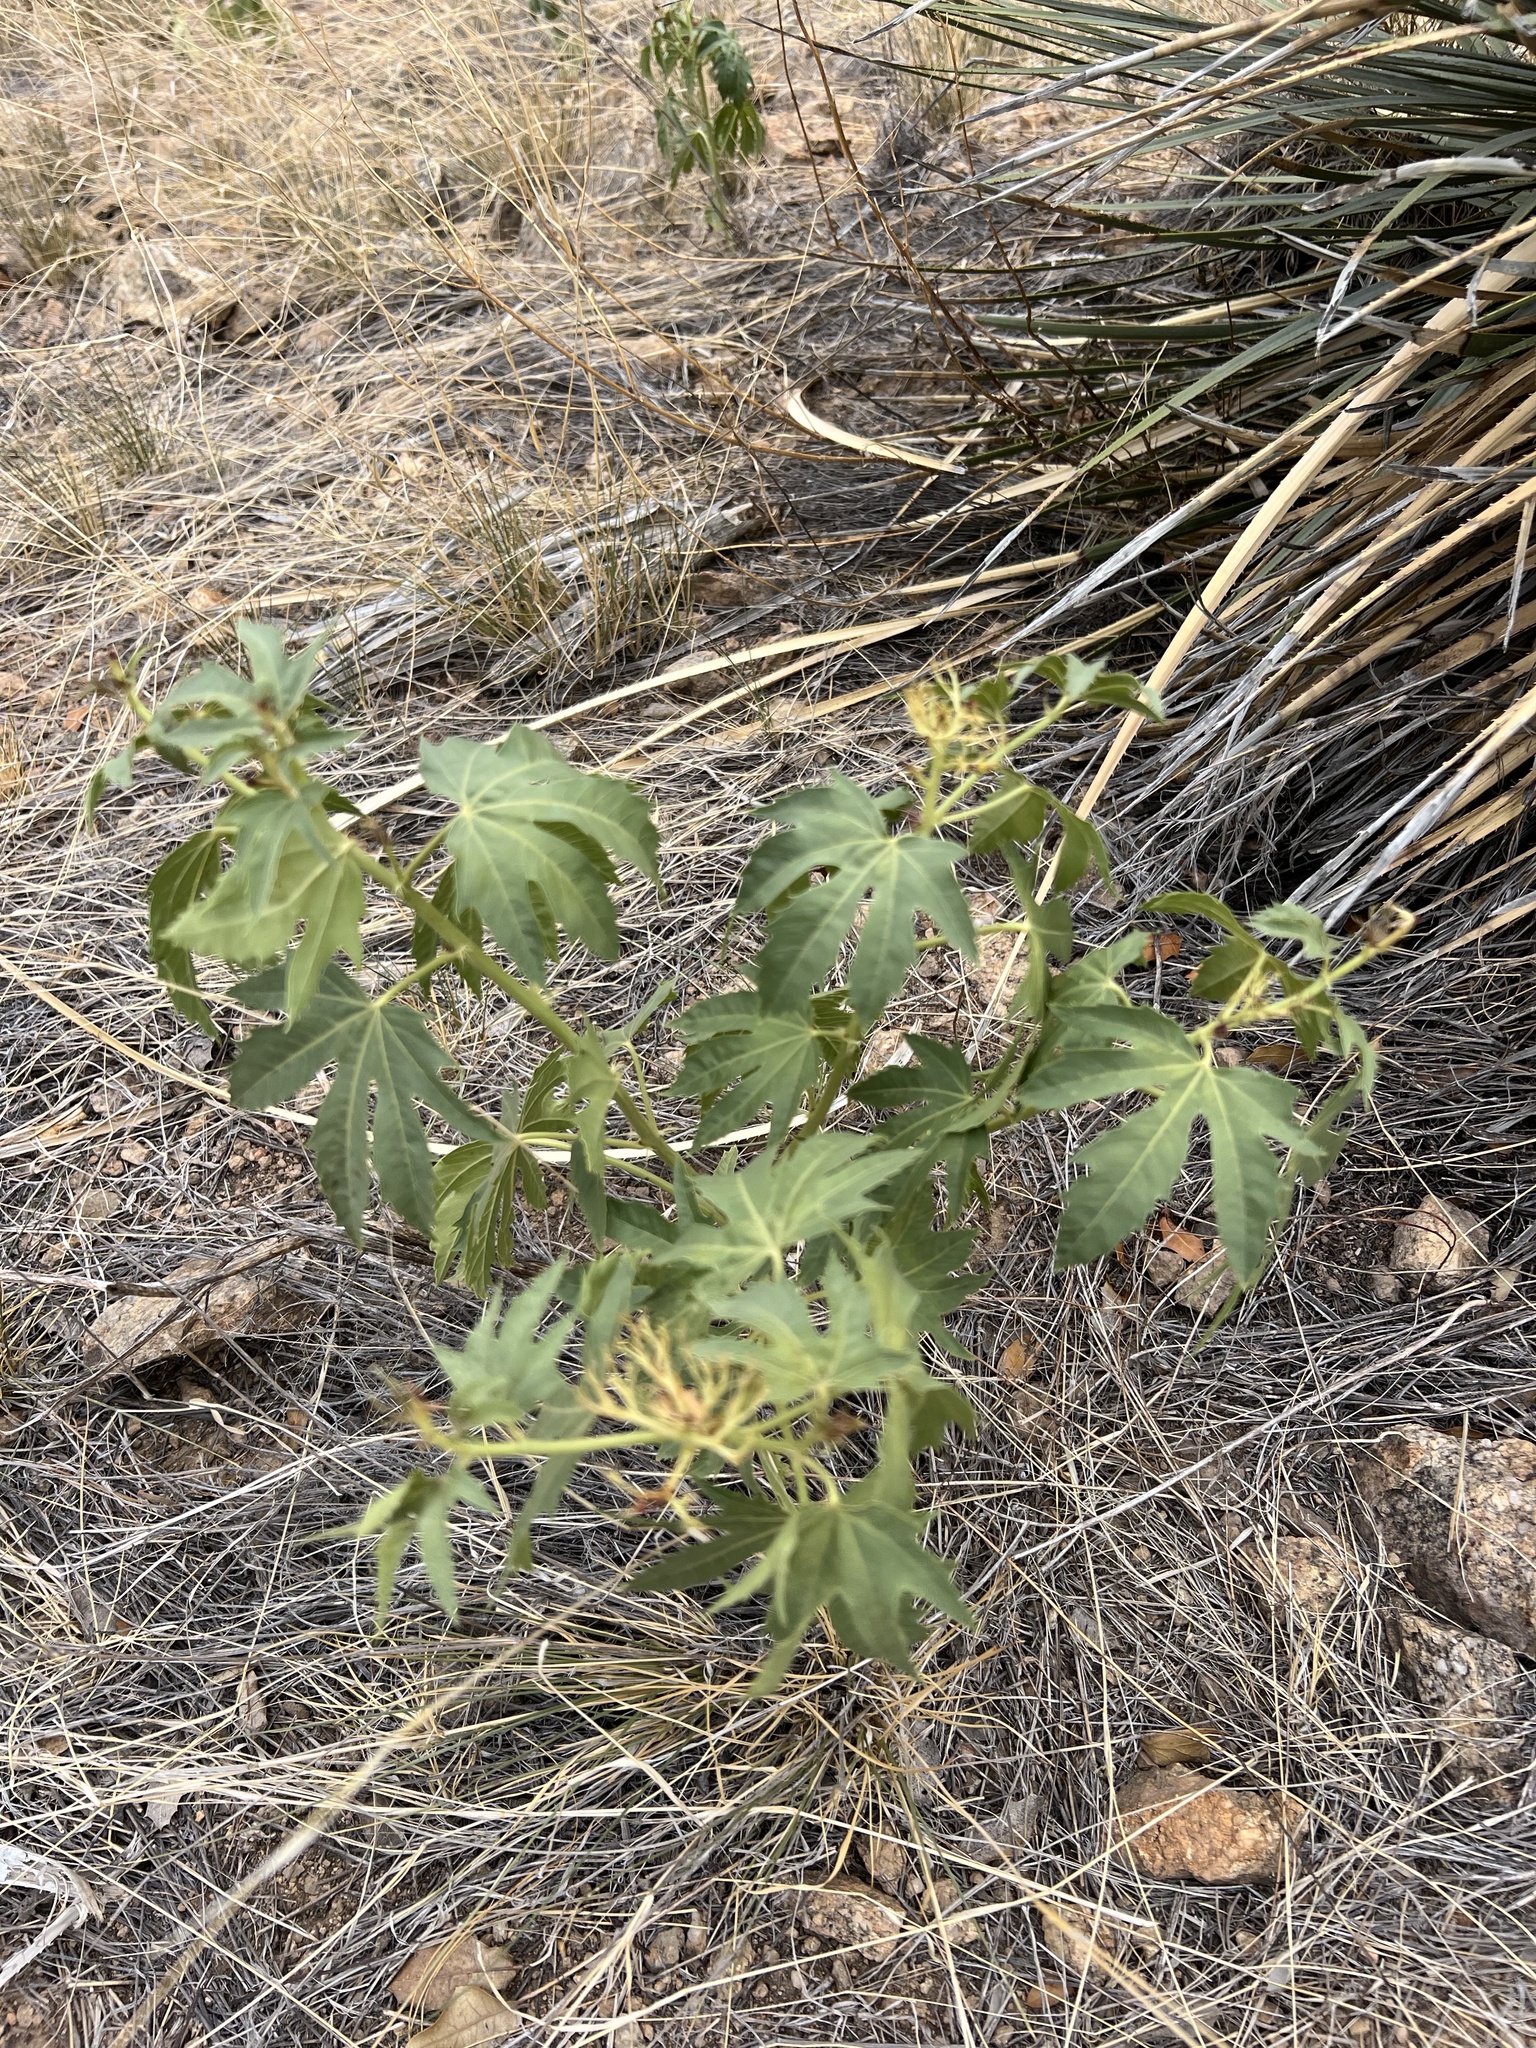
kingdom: Plantae
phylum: Tracheophyta
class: Magnoliopsida
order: Malpighiales
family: Euphorbiaceae
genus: Jatropha
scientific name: Jatropha macrorhiza
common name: Ragged nettlespurge
